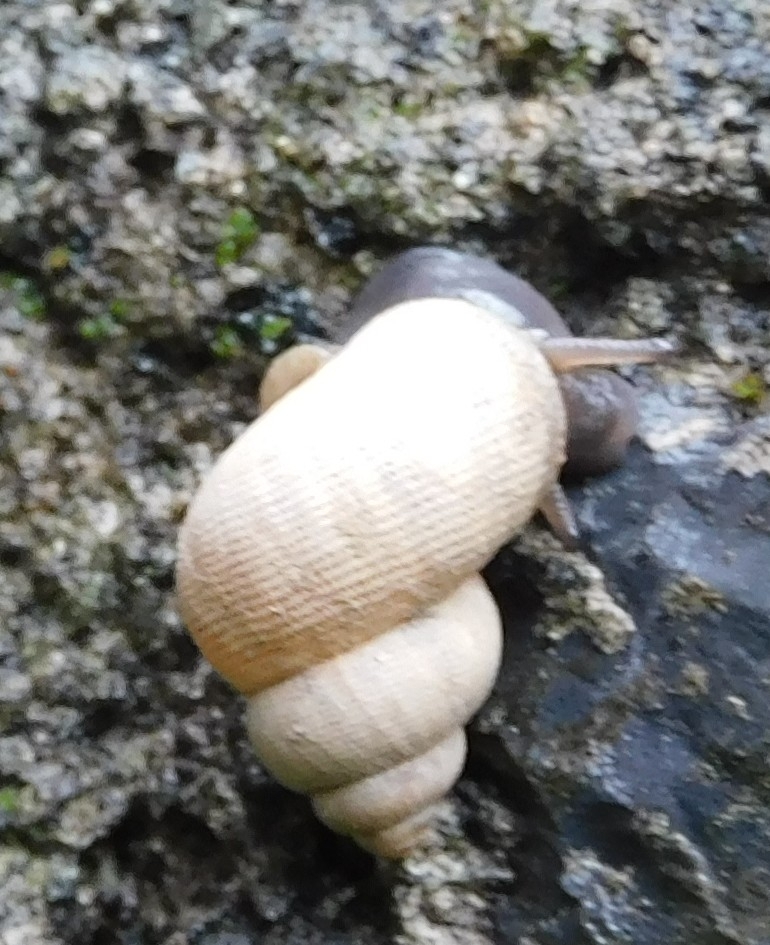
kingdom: Animalia
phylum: Mollusca
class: Gastropoda
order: Littorinimorpha
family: Pomatiidae
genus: Pomatias
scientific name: Pomatias elegans
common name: Red-mouthed snail
